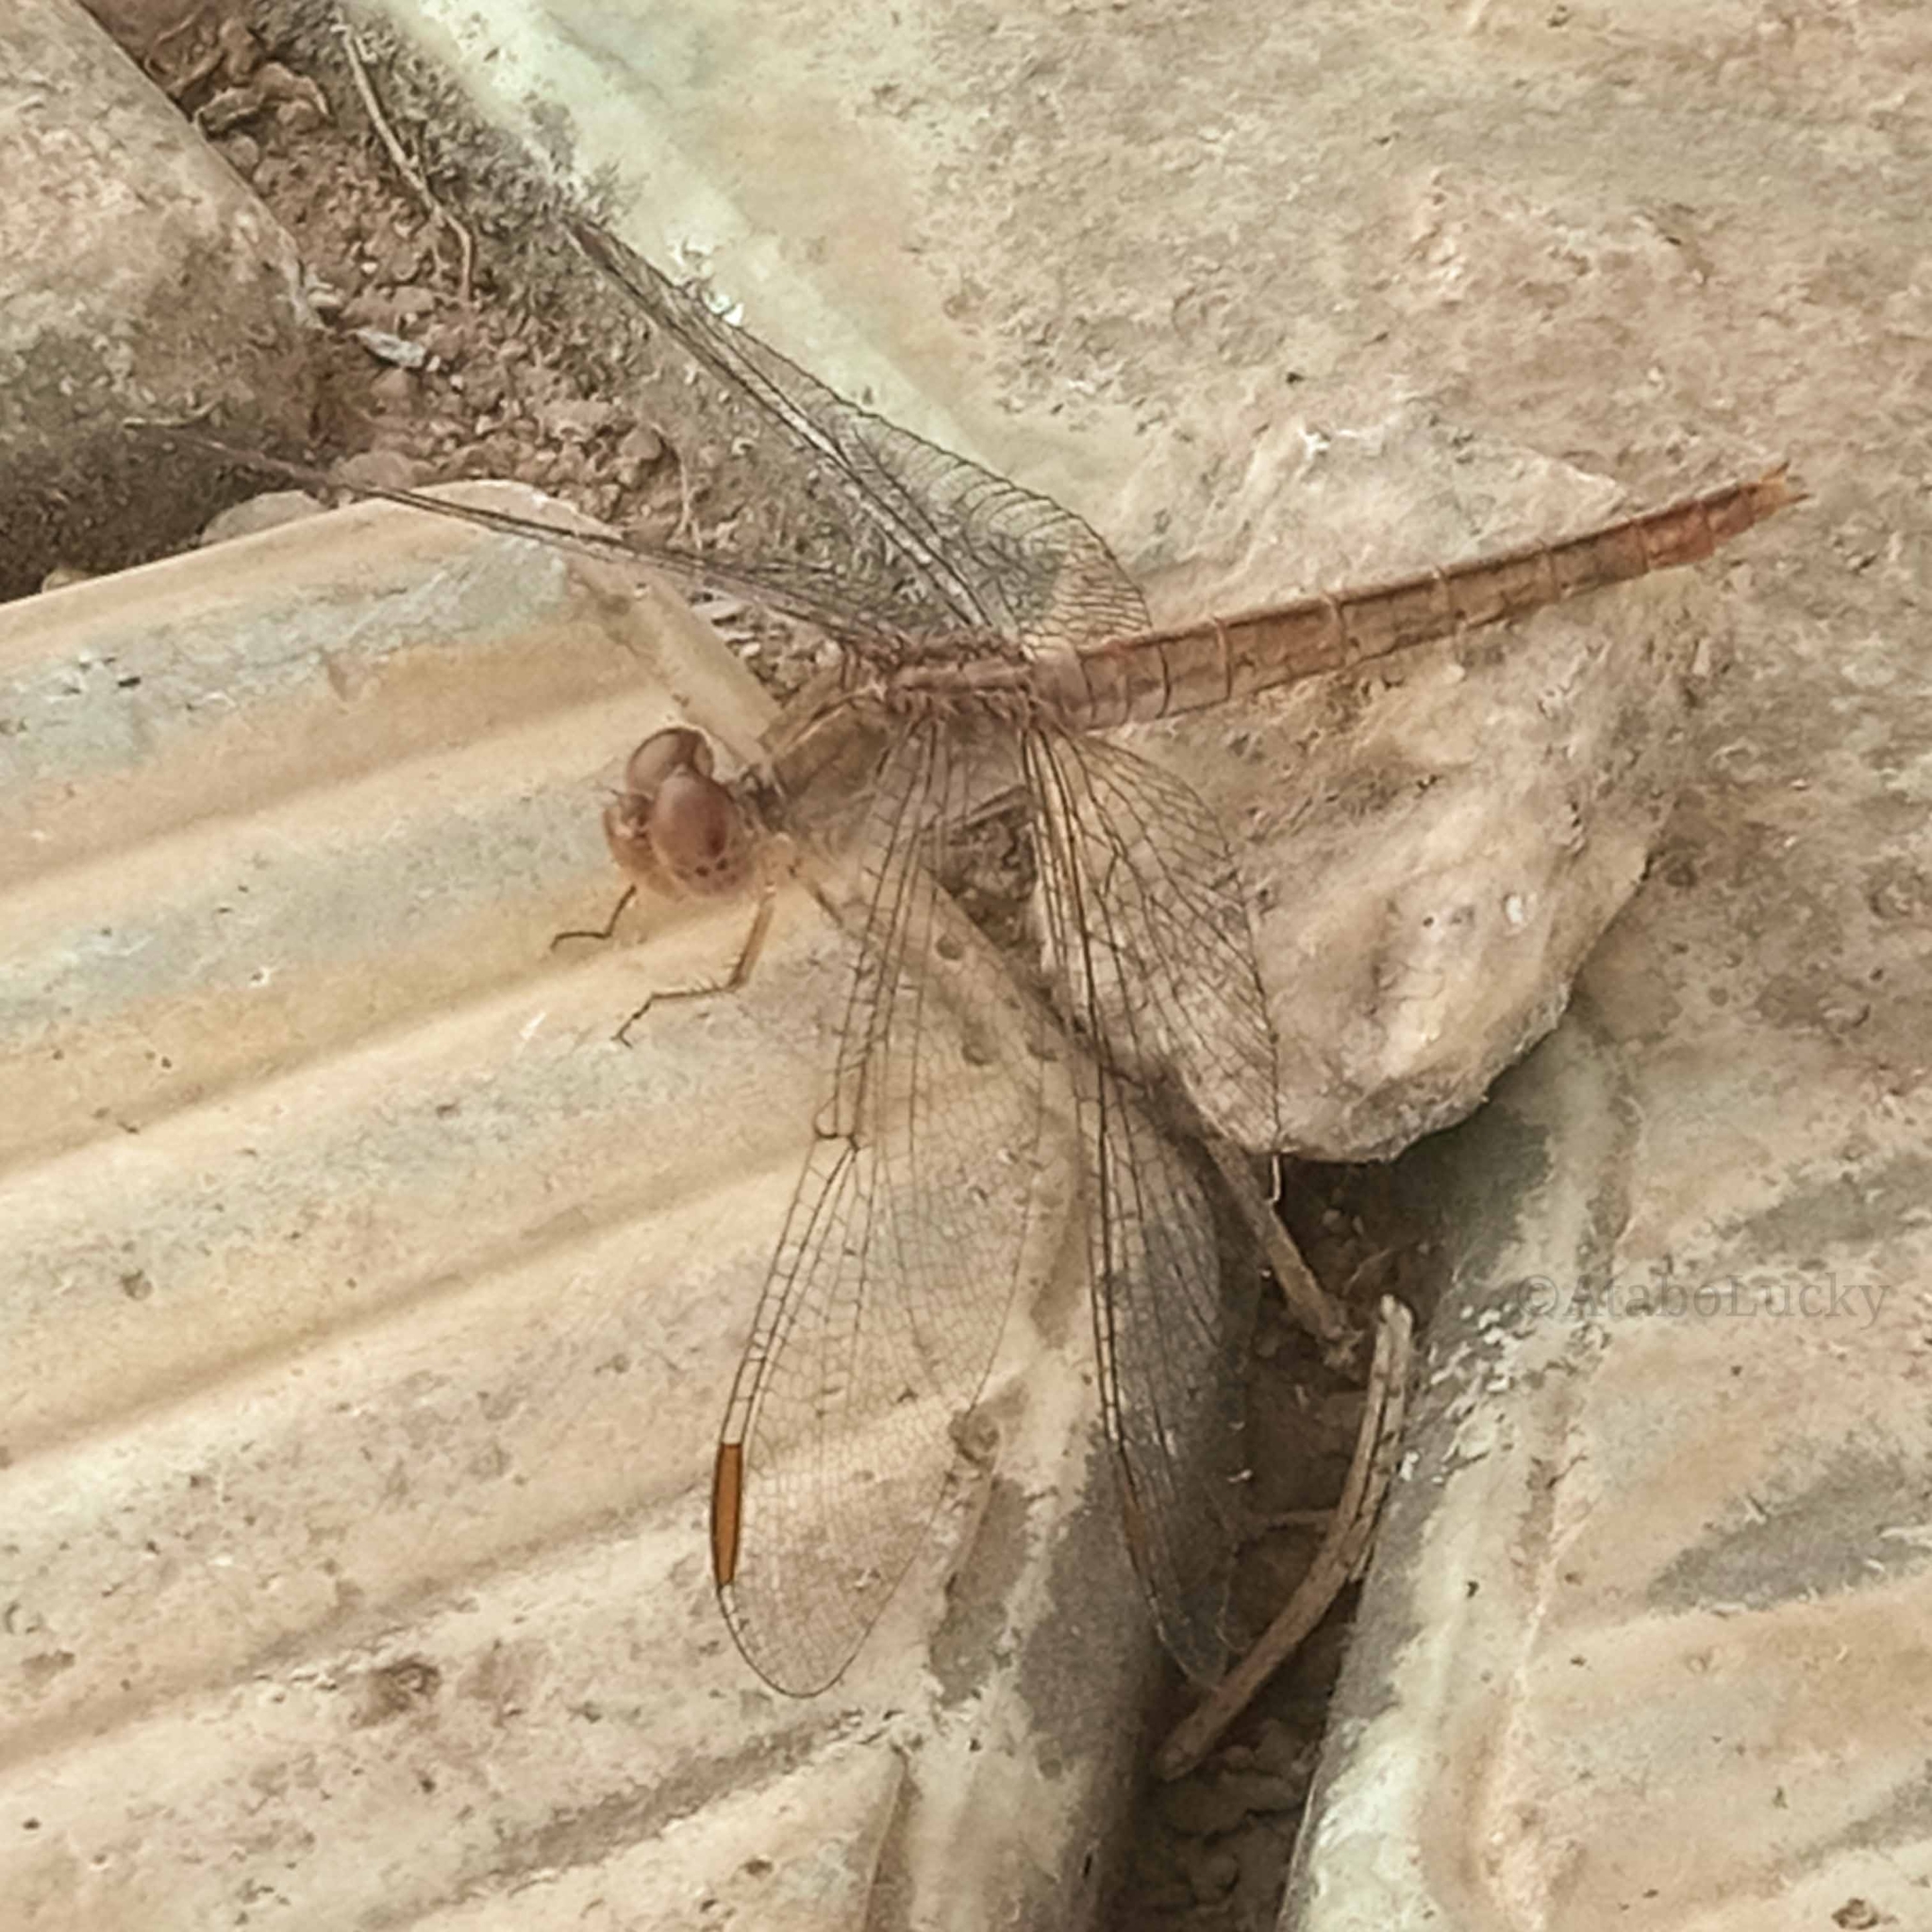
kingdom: Animalia
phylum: Arthropoda
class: Insecta
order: Odonata
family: Libellulidae
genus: Crocothemis
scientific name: Crocothemis divisa
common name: Divisa scarlet
